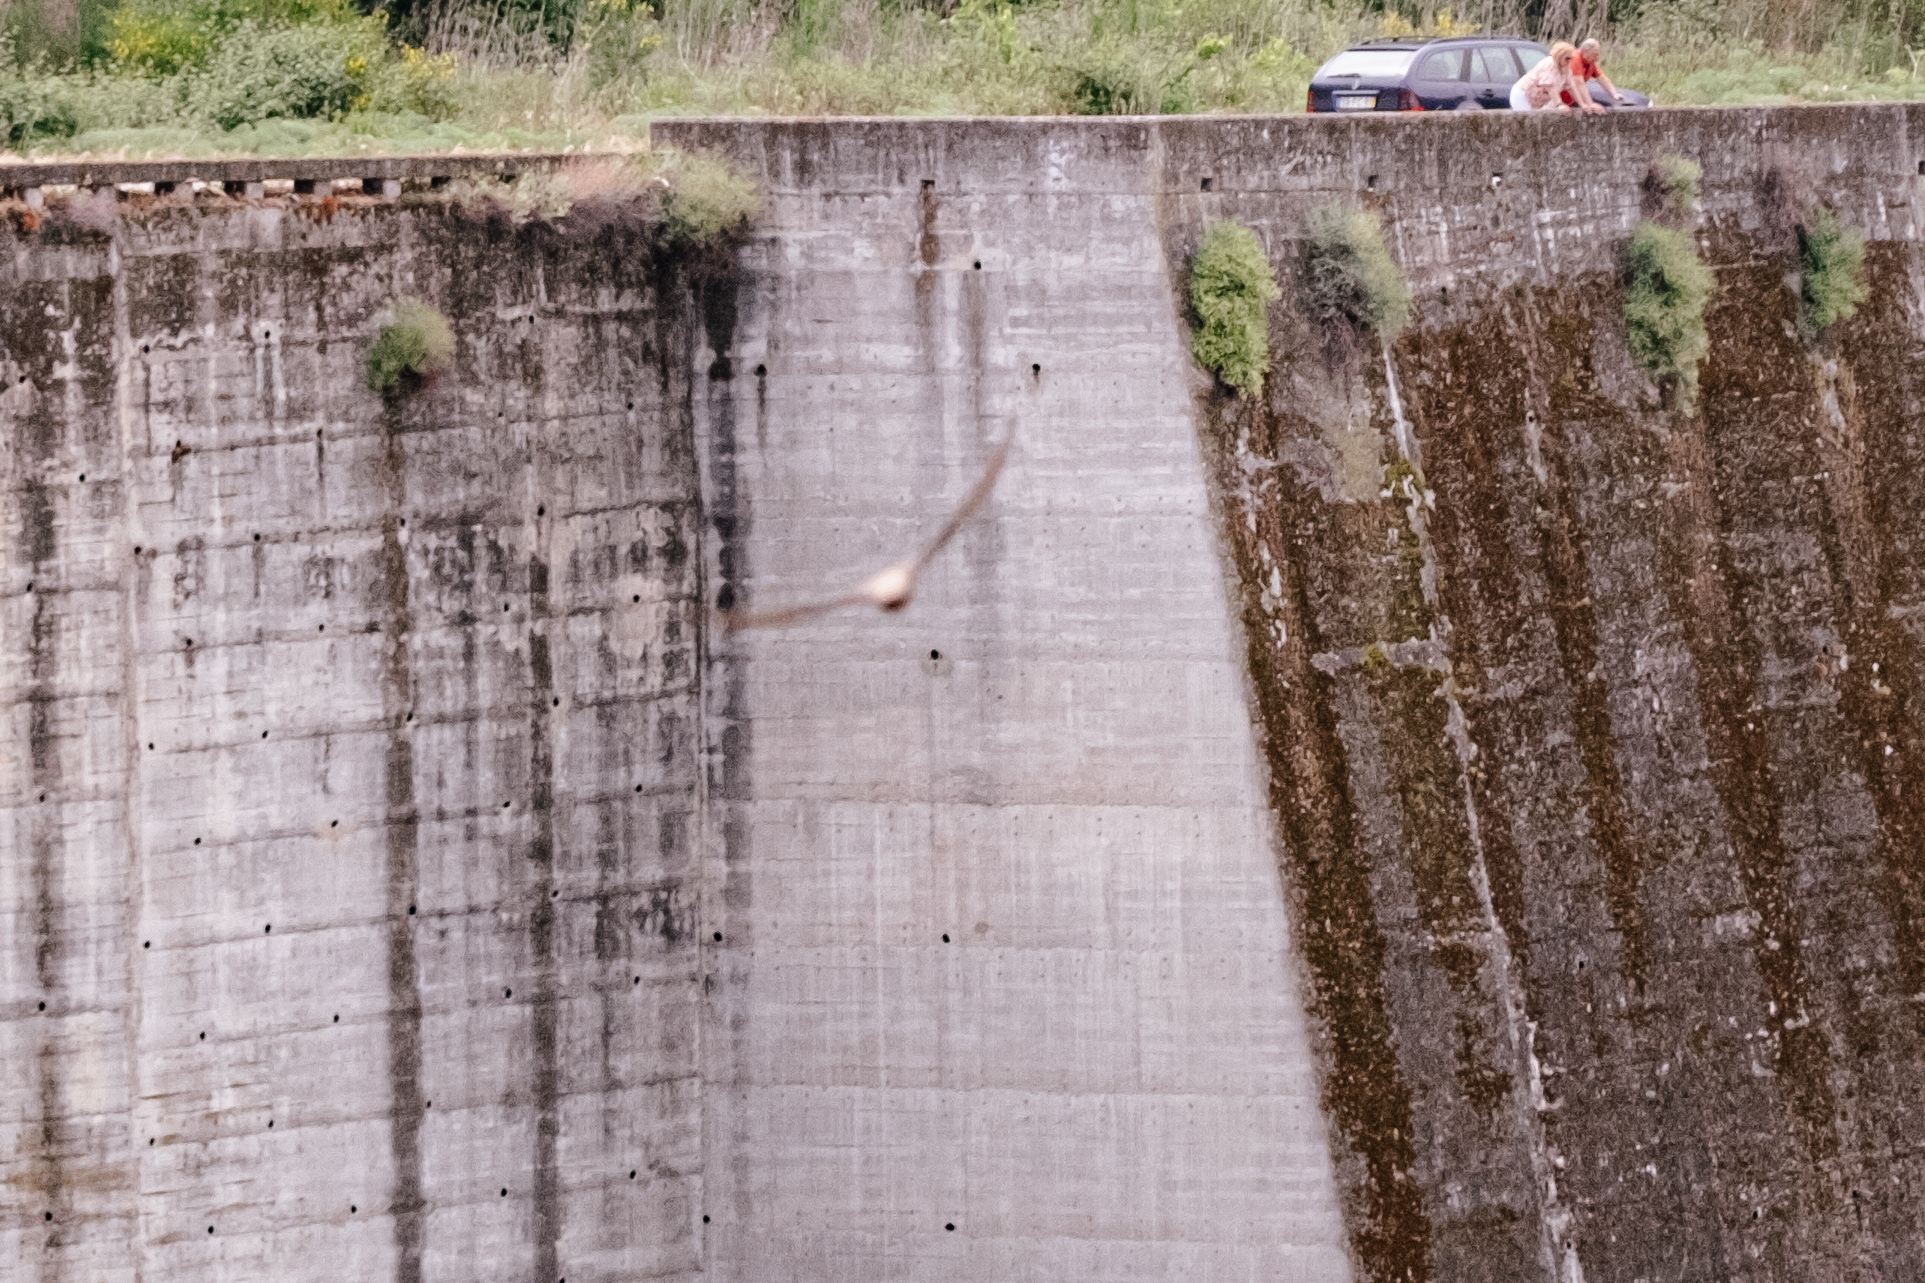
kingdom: Animalia
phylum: Chordata
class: Aves
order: Passeriformes
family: Hirundinidae
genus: Ptyonoprogne
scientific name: Ptyonoprogne rupestris
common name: Eurasian crag martin
